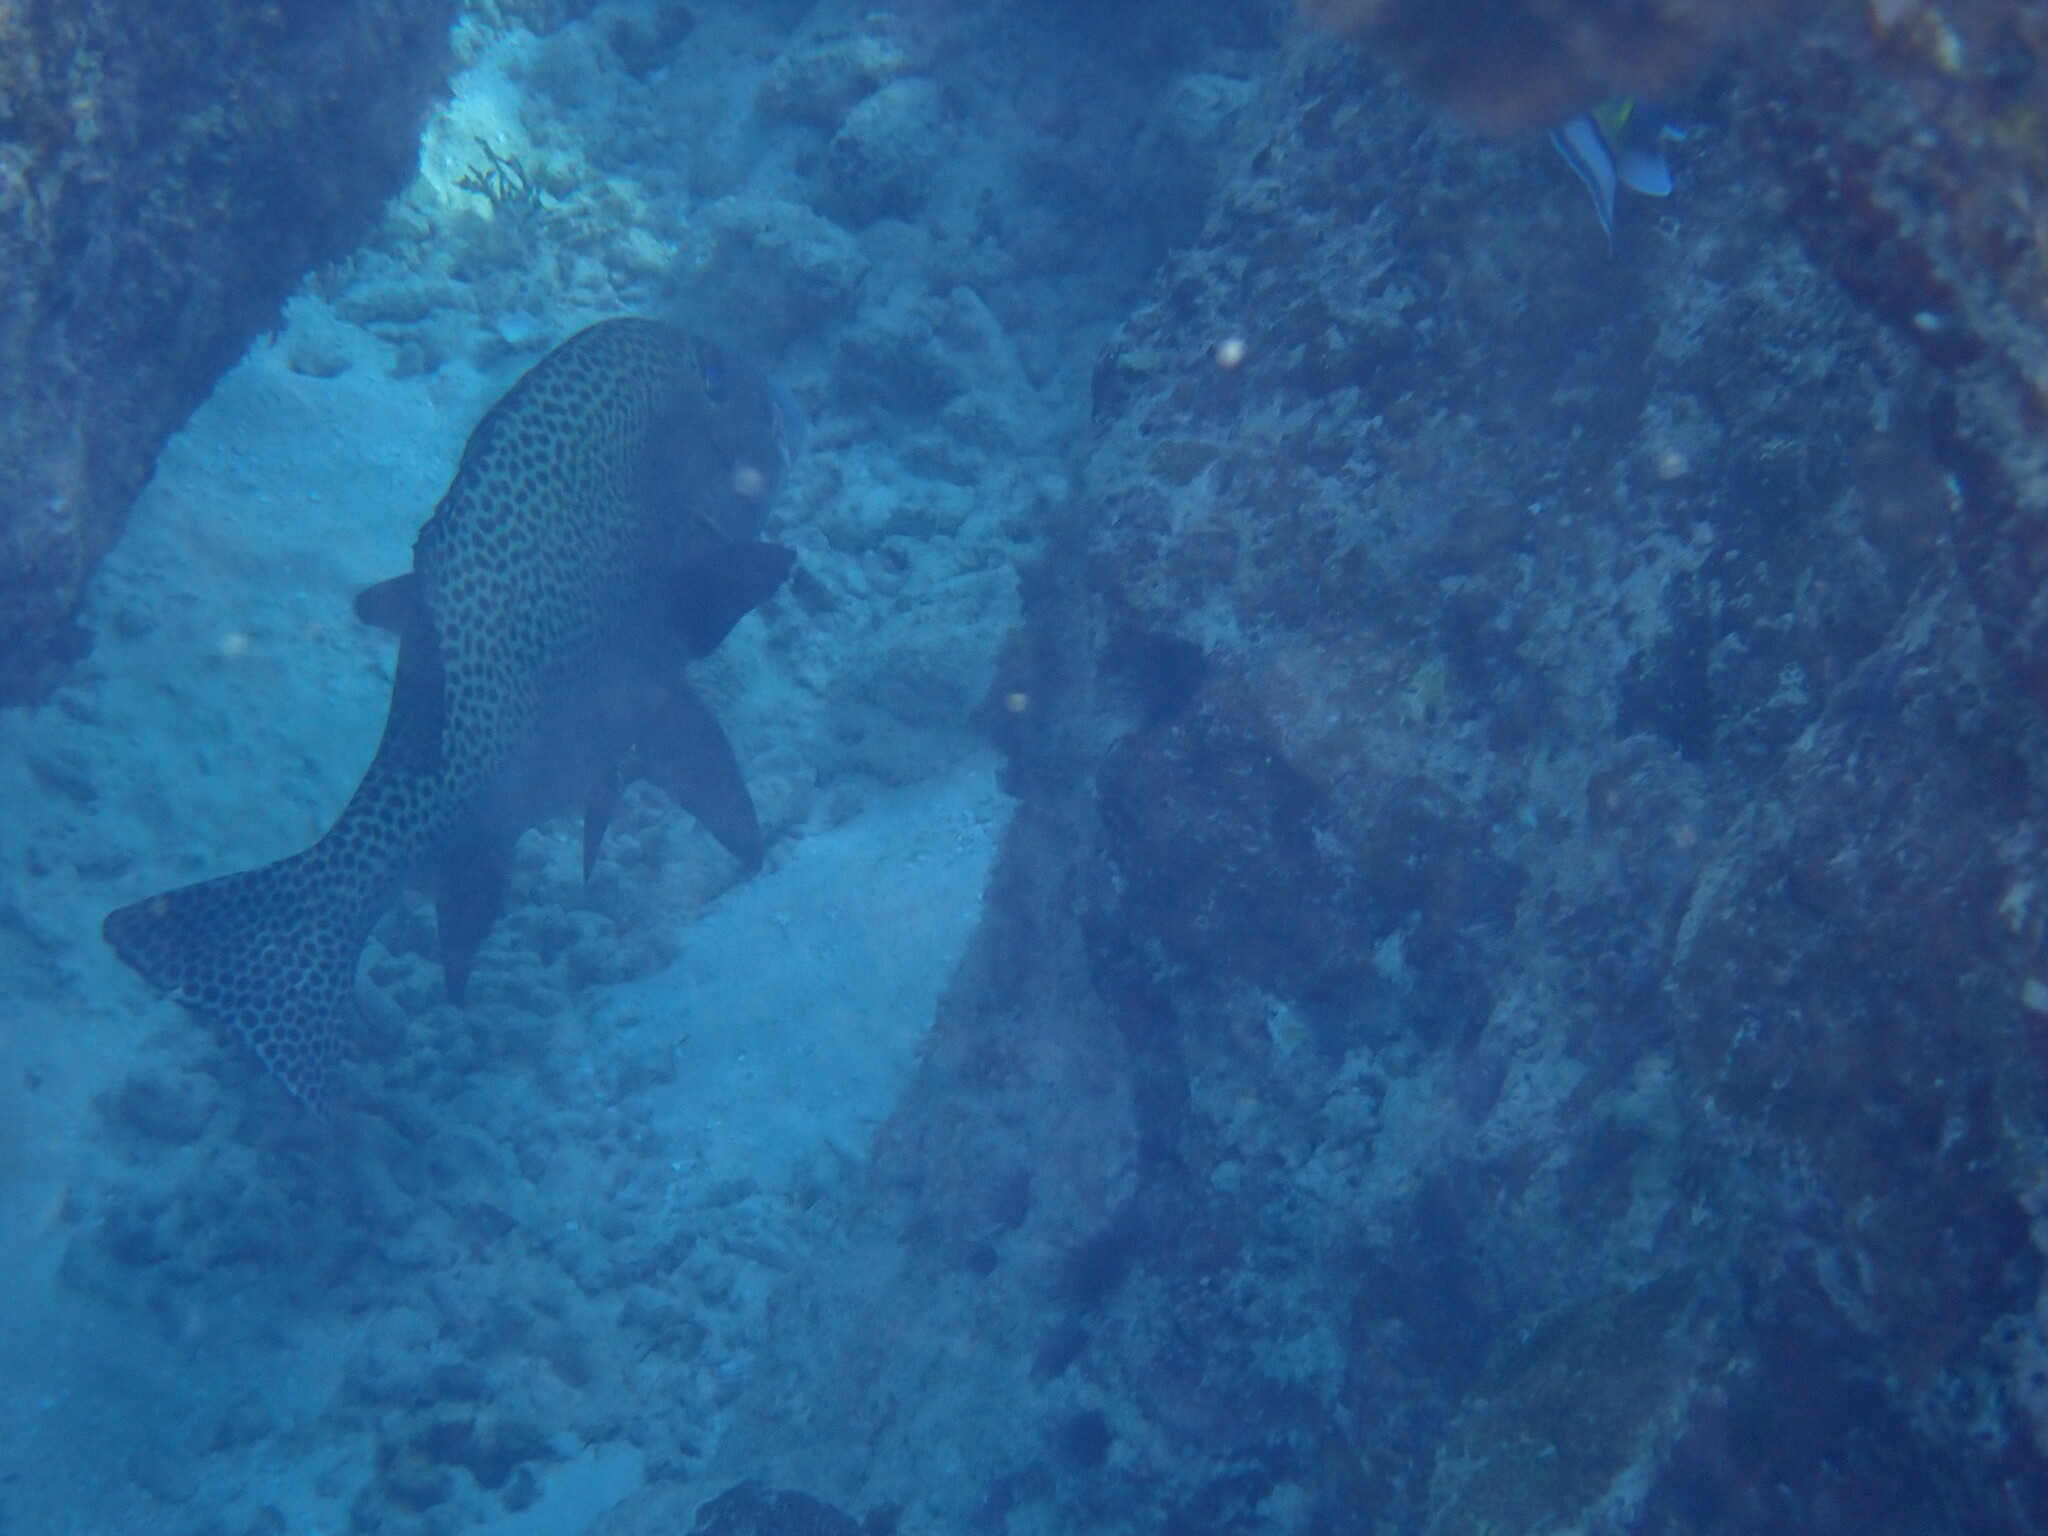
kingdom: Animalia
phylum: Chordata
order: Perciformes
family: Haemulidae
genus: Plectorhinchus
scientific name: Plectorhinchus chaetodonoides
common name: Harlequin sweetlips
